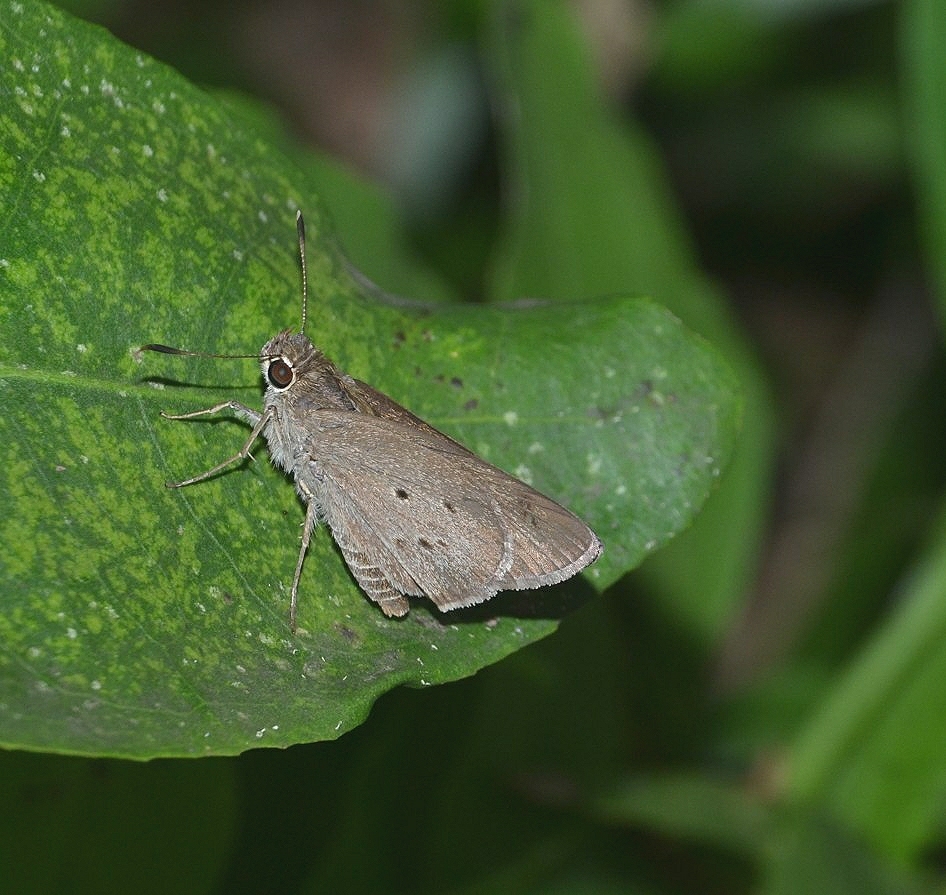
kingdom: Animalia
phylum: Arthropoda
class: Insecta
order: Lepidoptera
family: Hesperiidae
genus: Suastus
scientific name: Suastus gremius
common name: Indian palm bob
